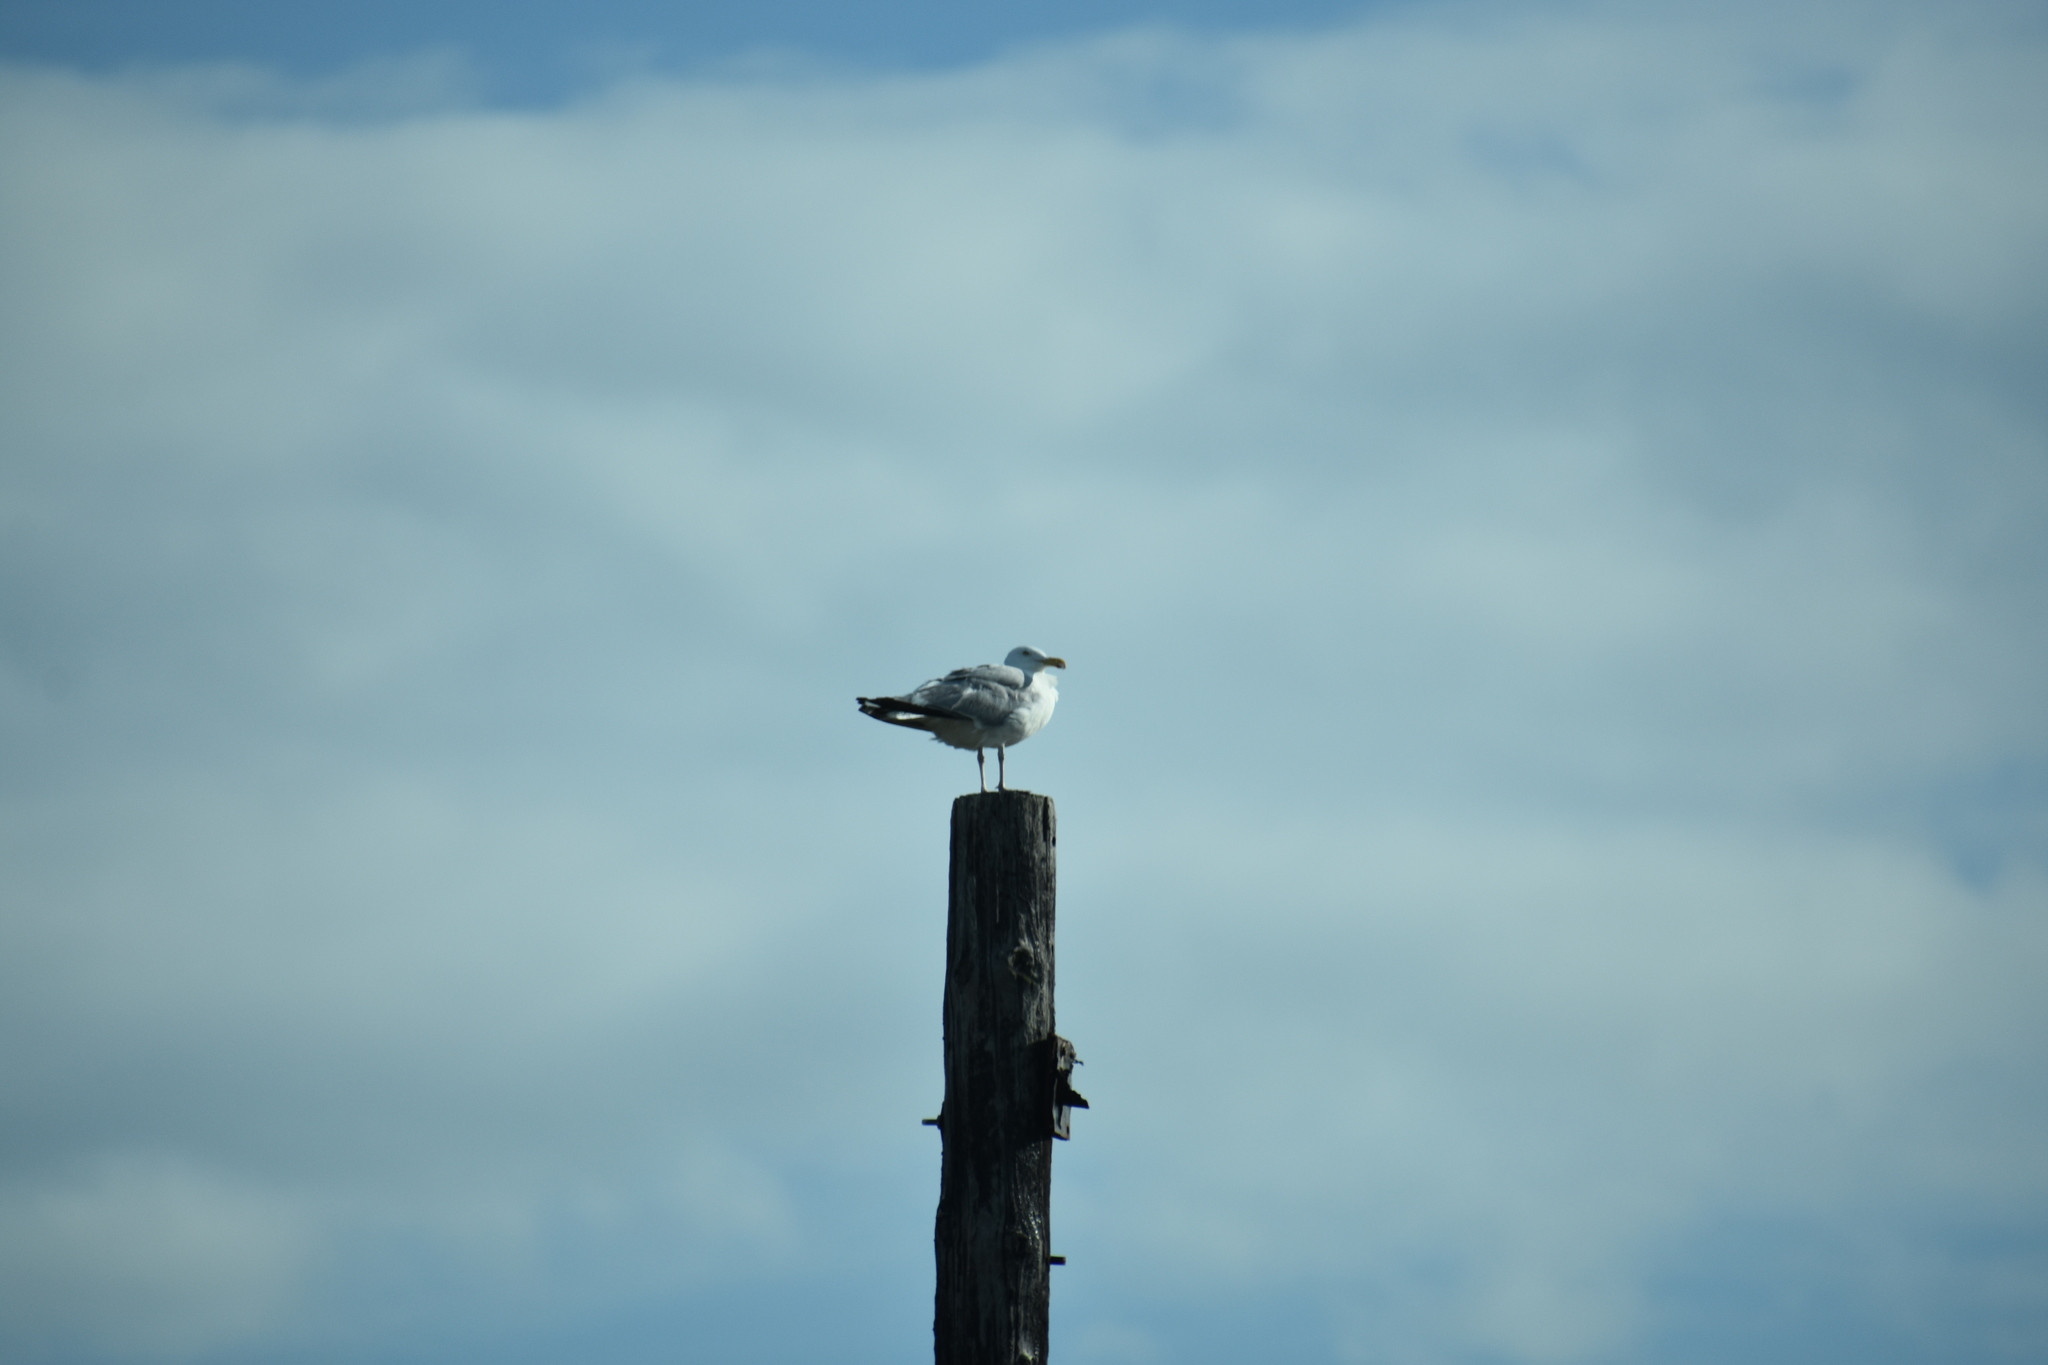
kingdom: Animalia
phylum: Chordata
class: Aves
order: Charadriiformes
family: Laridae
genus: Larus
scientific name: Larus argentatus
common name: Herring gull
